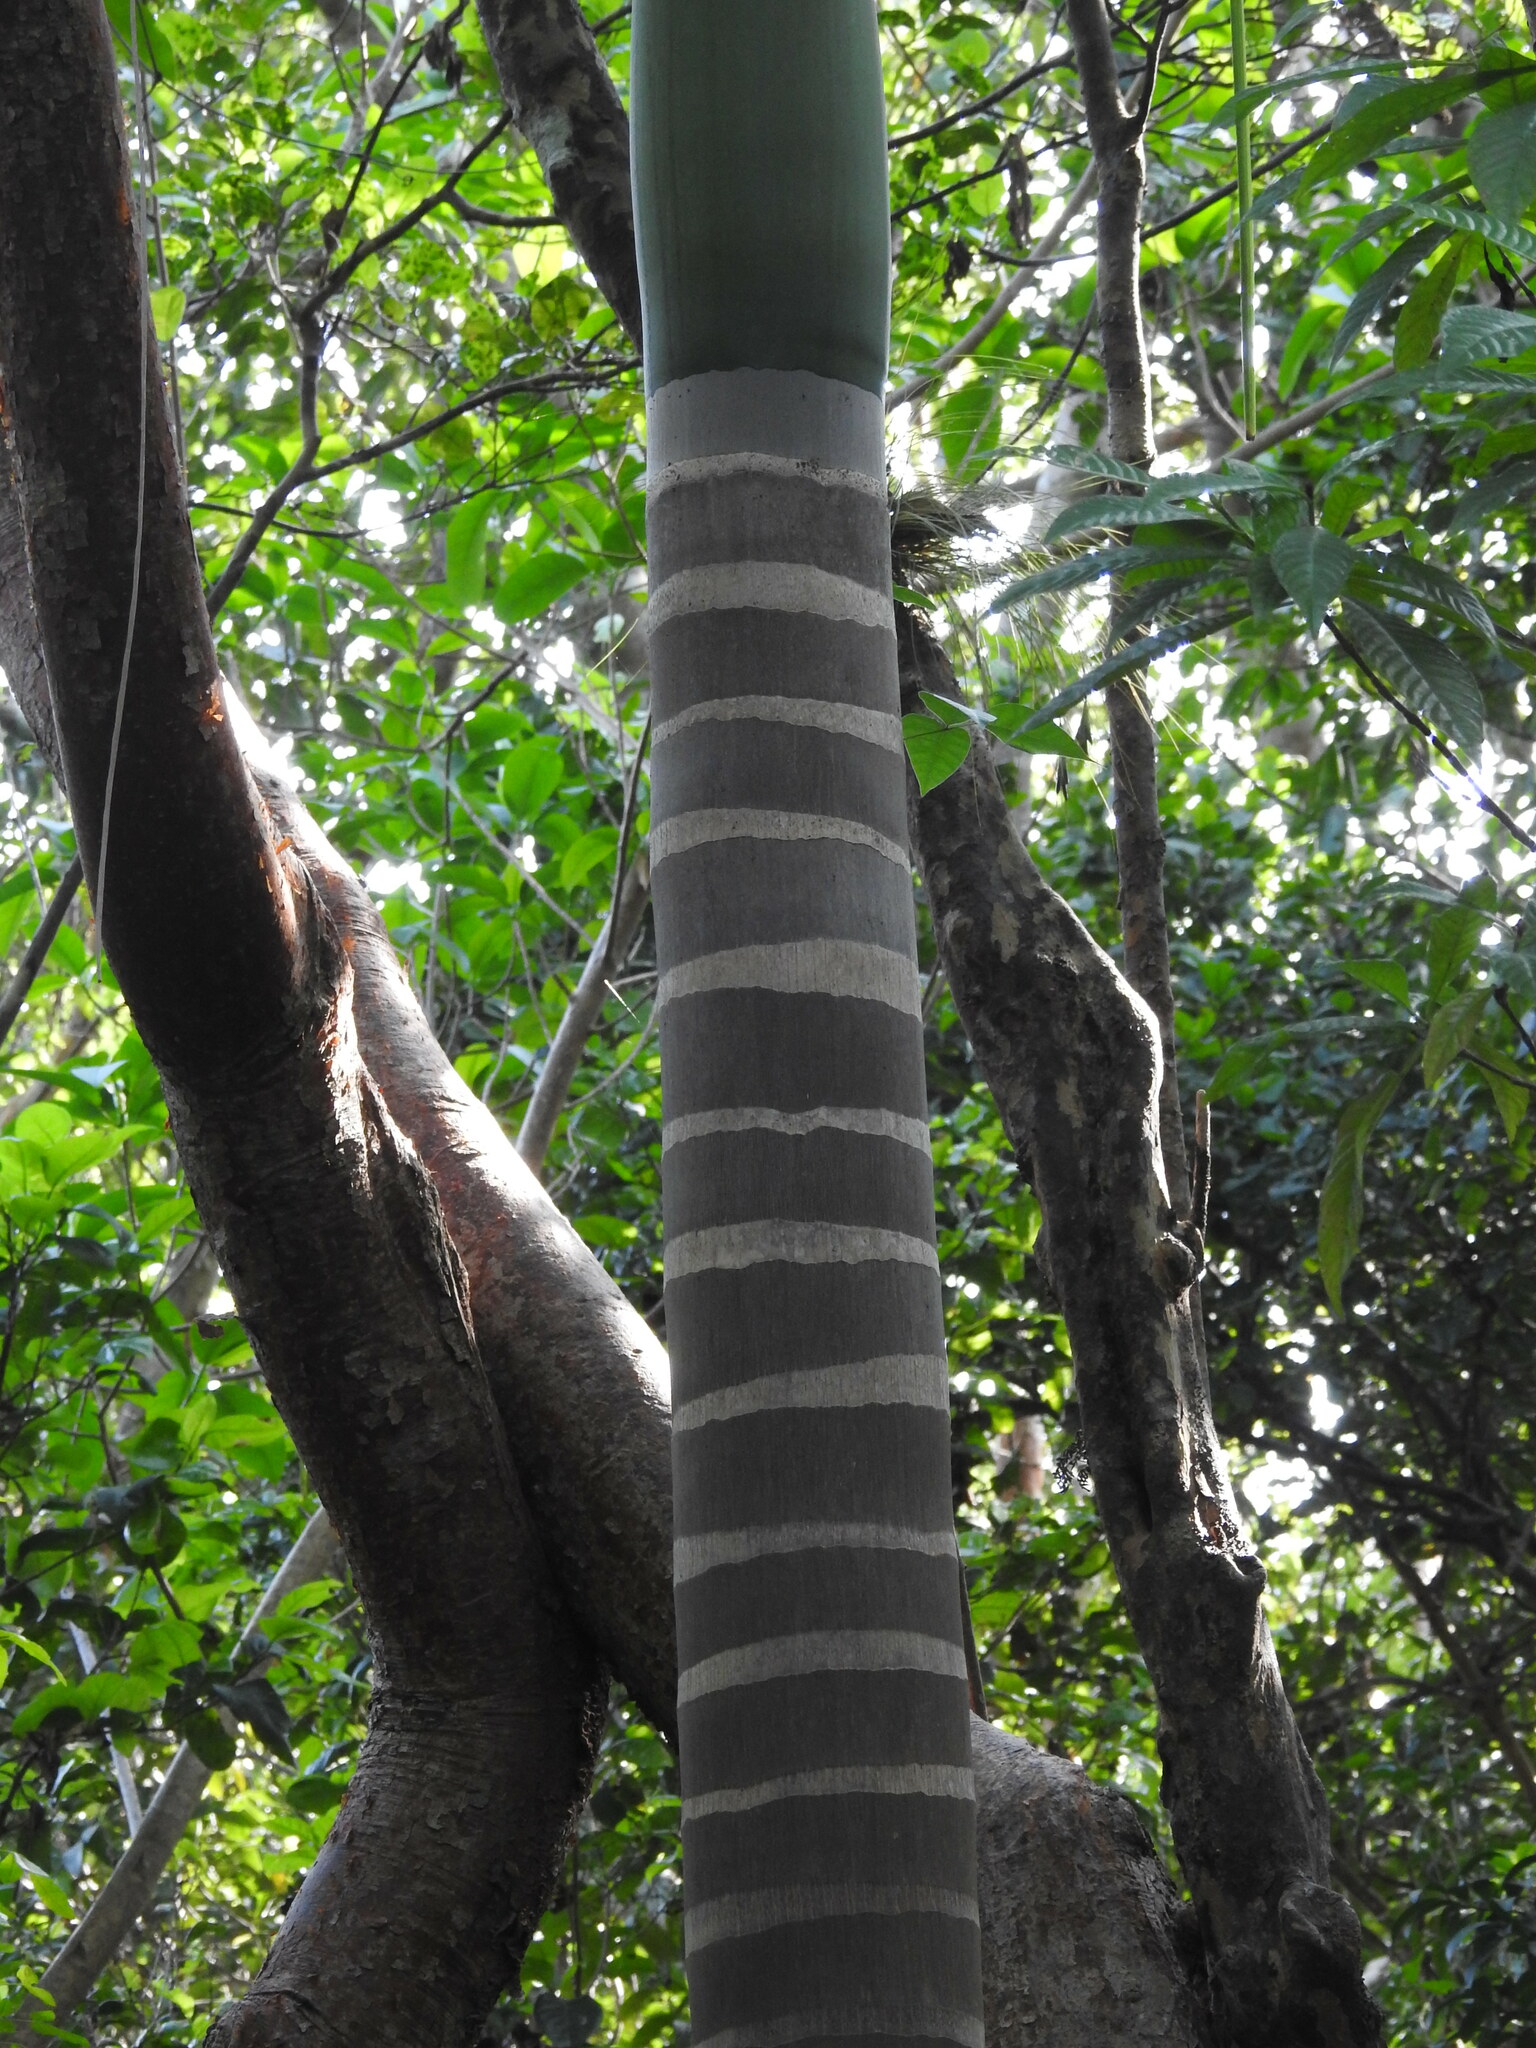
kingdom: Plantae
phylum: Tracheophyta
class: Liliopsida
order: Arecales
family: Arecaceae
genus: Roystonea
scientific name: Roystonea regia
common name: Florida royal palm
